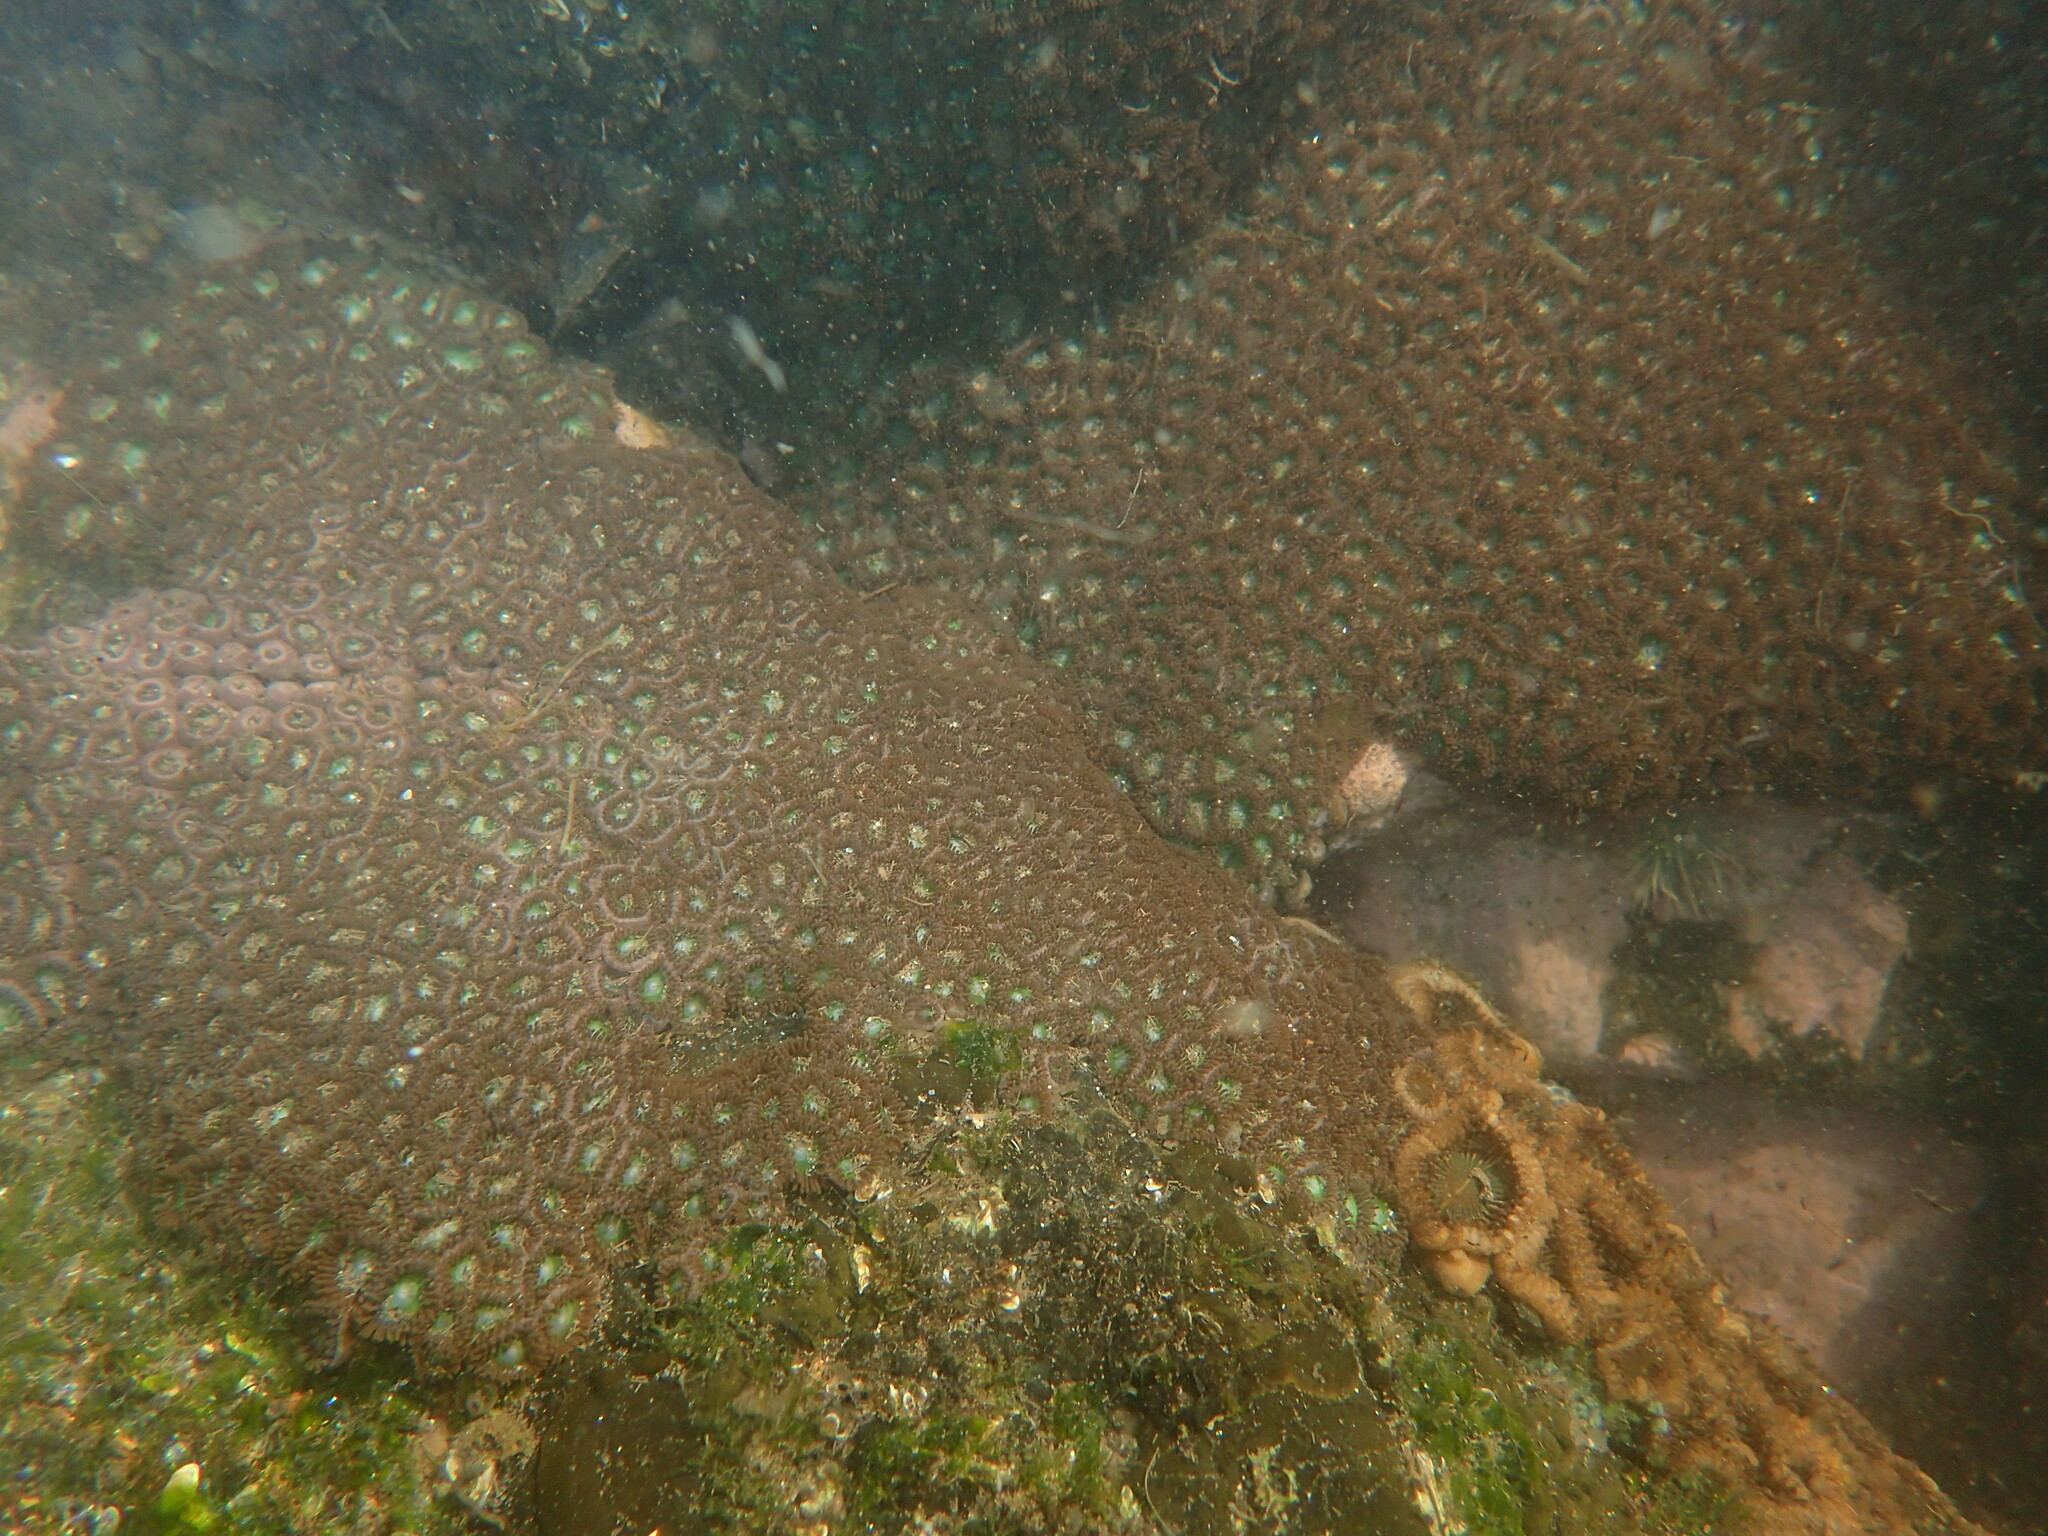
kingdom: Animalia
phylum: Cnidaria
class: Anthozoa
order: Zoantharia
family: Zoanthidae
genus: Zoanthus
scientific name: Zoanthus sansibaricus
